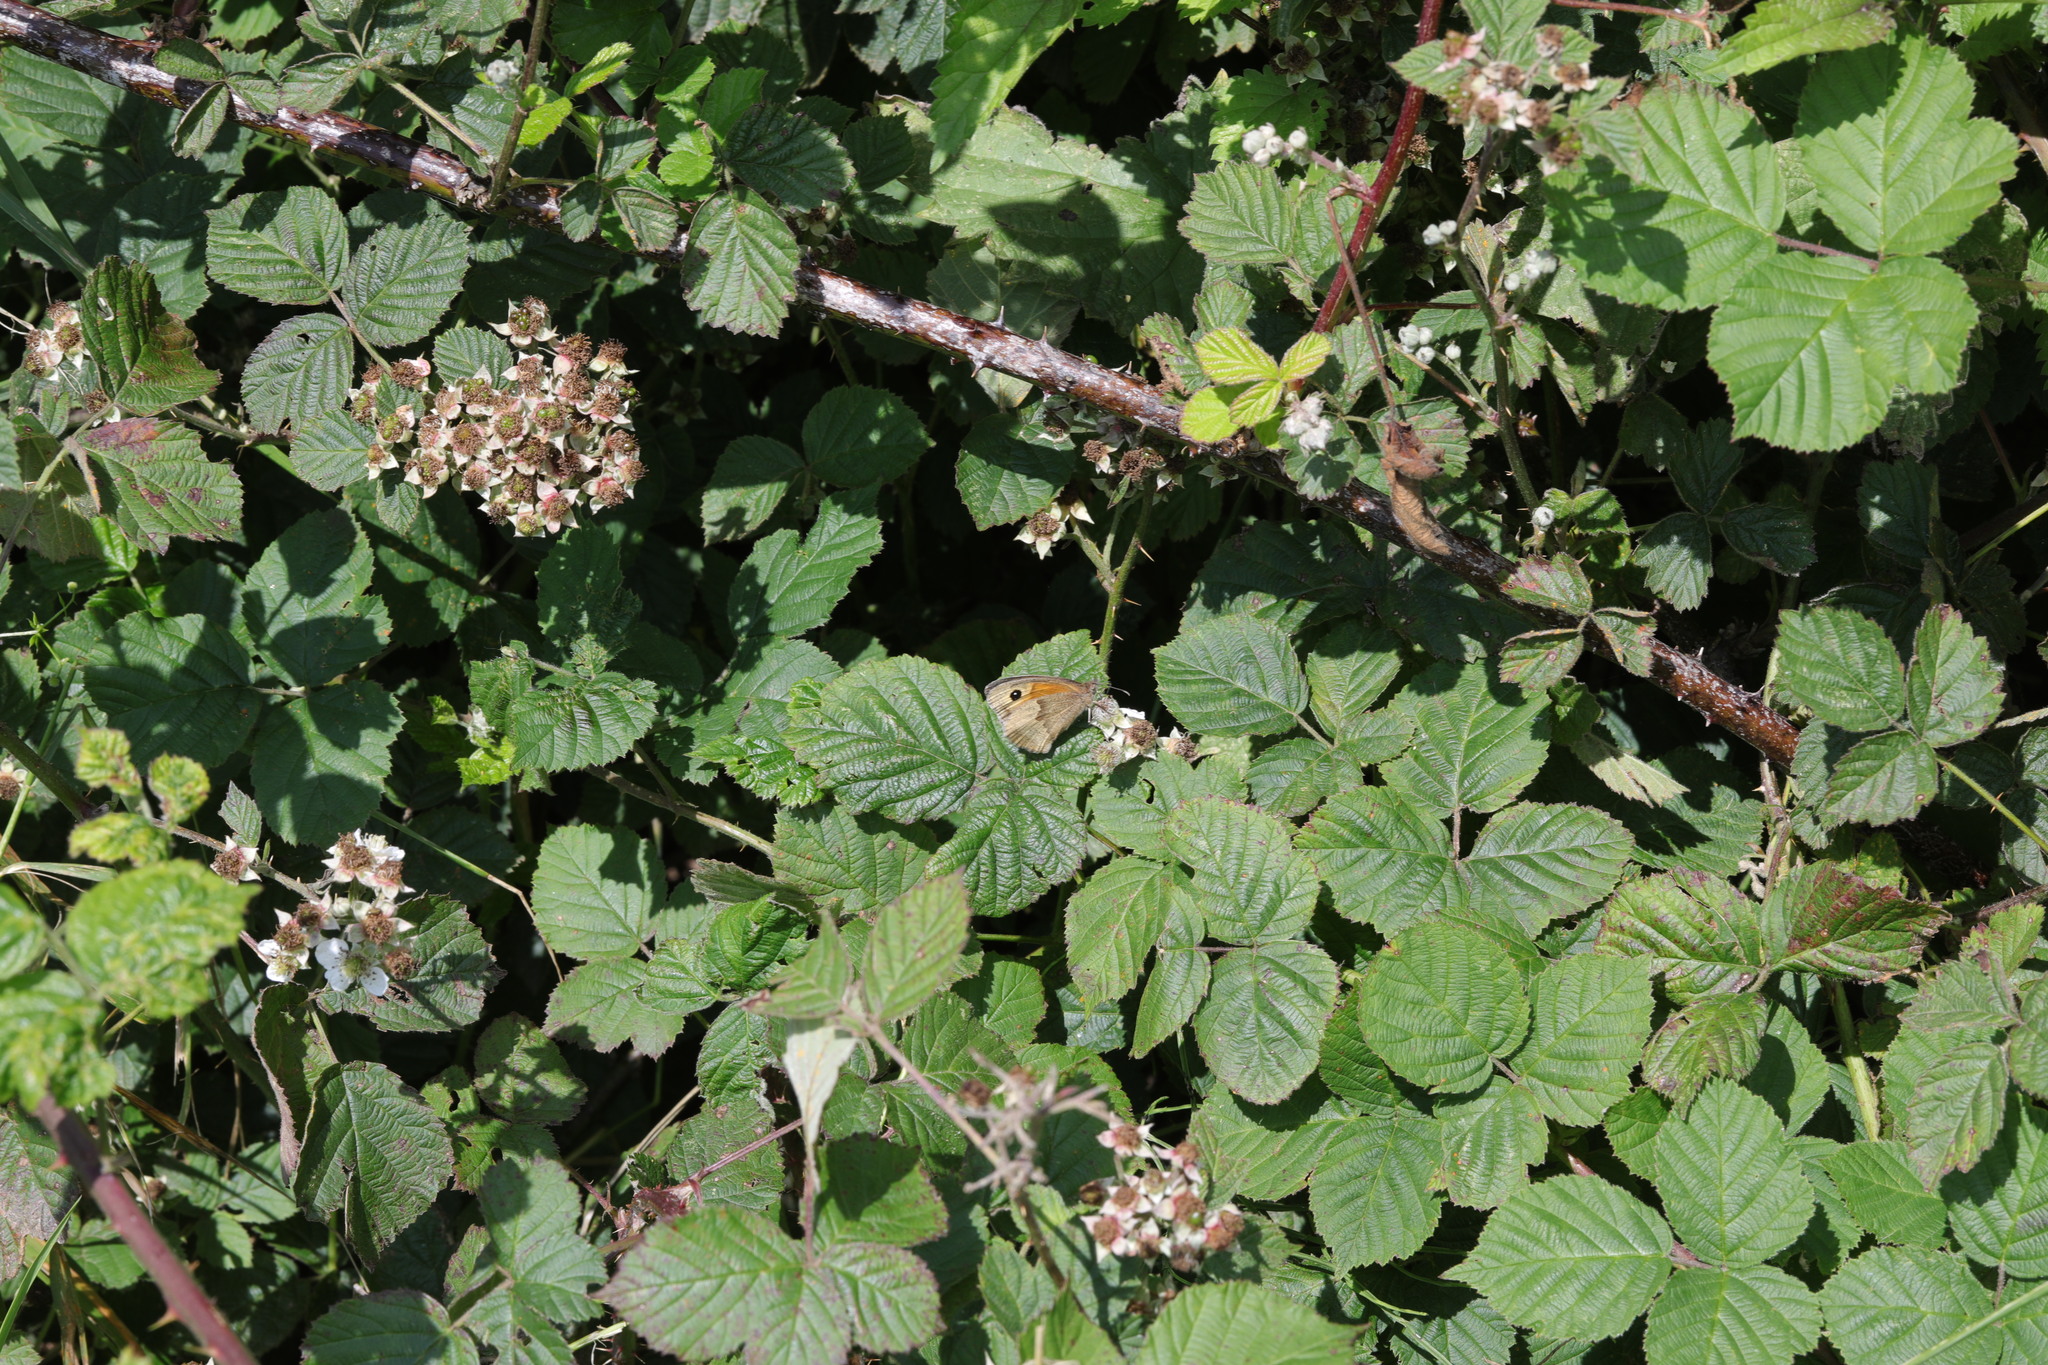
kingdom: Animalia
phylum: Arthropoda
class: Insecta
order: Lepidoptera
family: Nymphalidae
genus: Maniola
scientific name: Maniola jurtina
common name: Meadow brown
